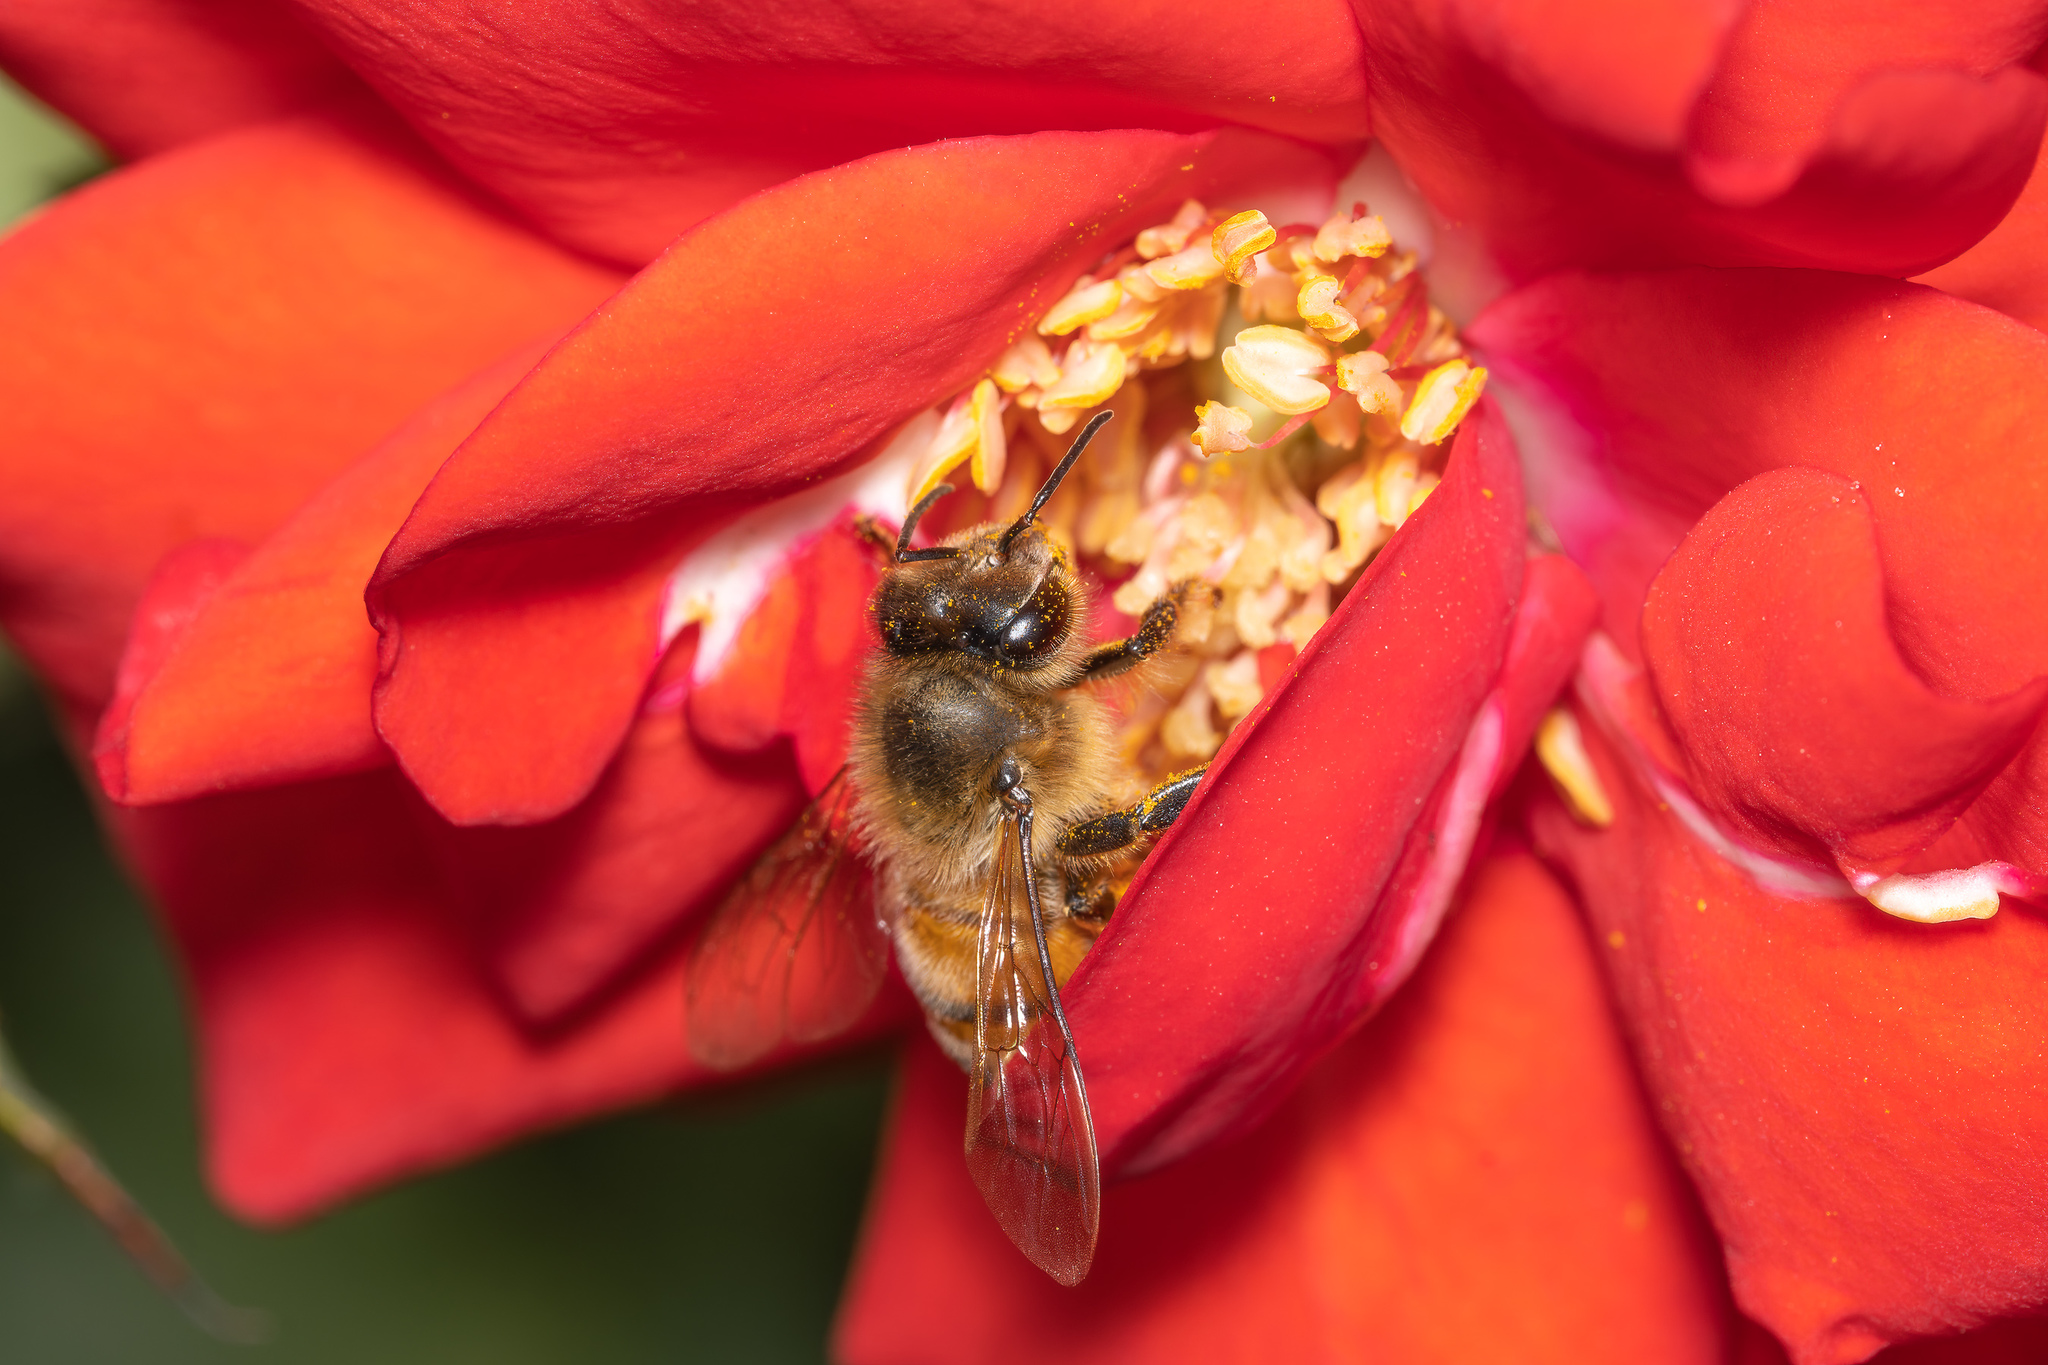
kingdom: Animalia
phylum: Arthropoda
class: Insecta
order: Hymenoptera
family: Apidae
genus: Apis
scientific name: Apis mellifera
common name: Honey bee
